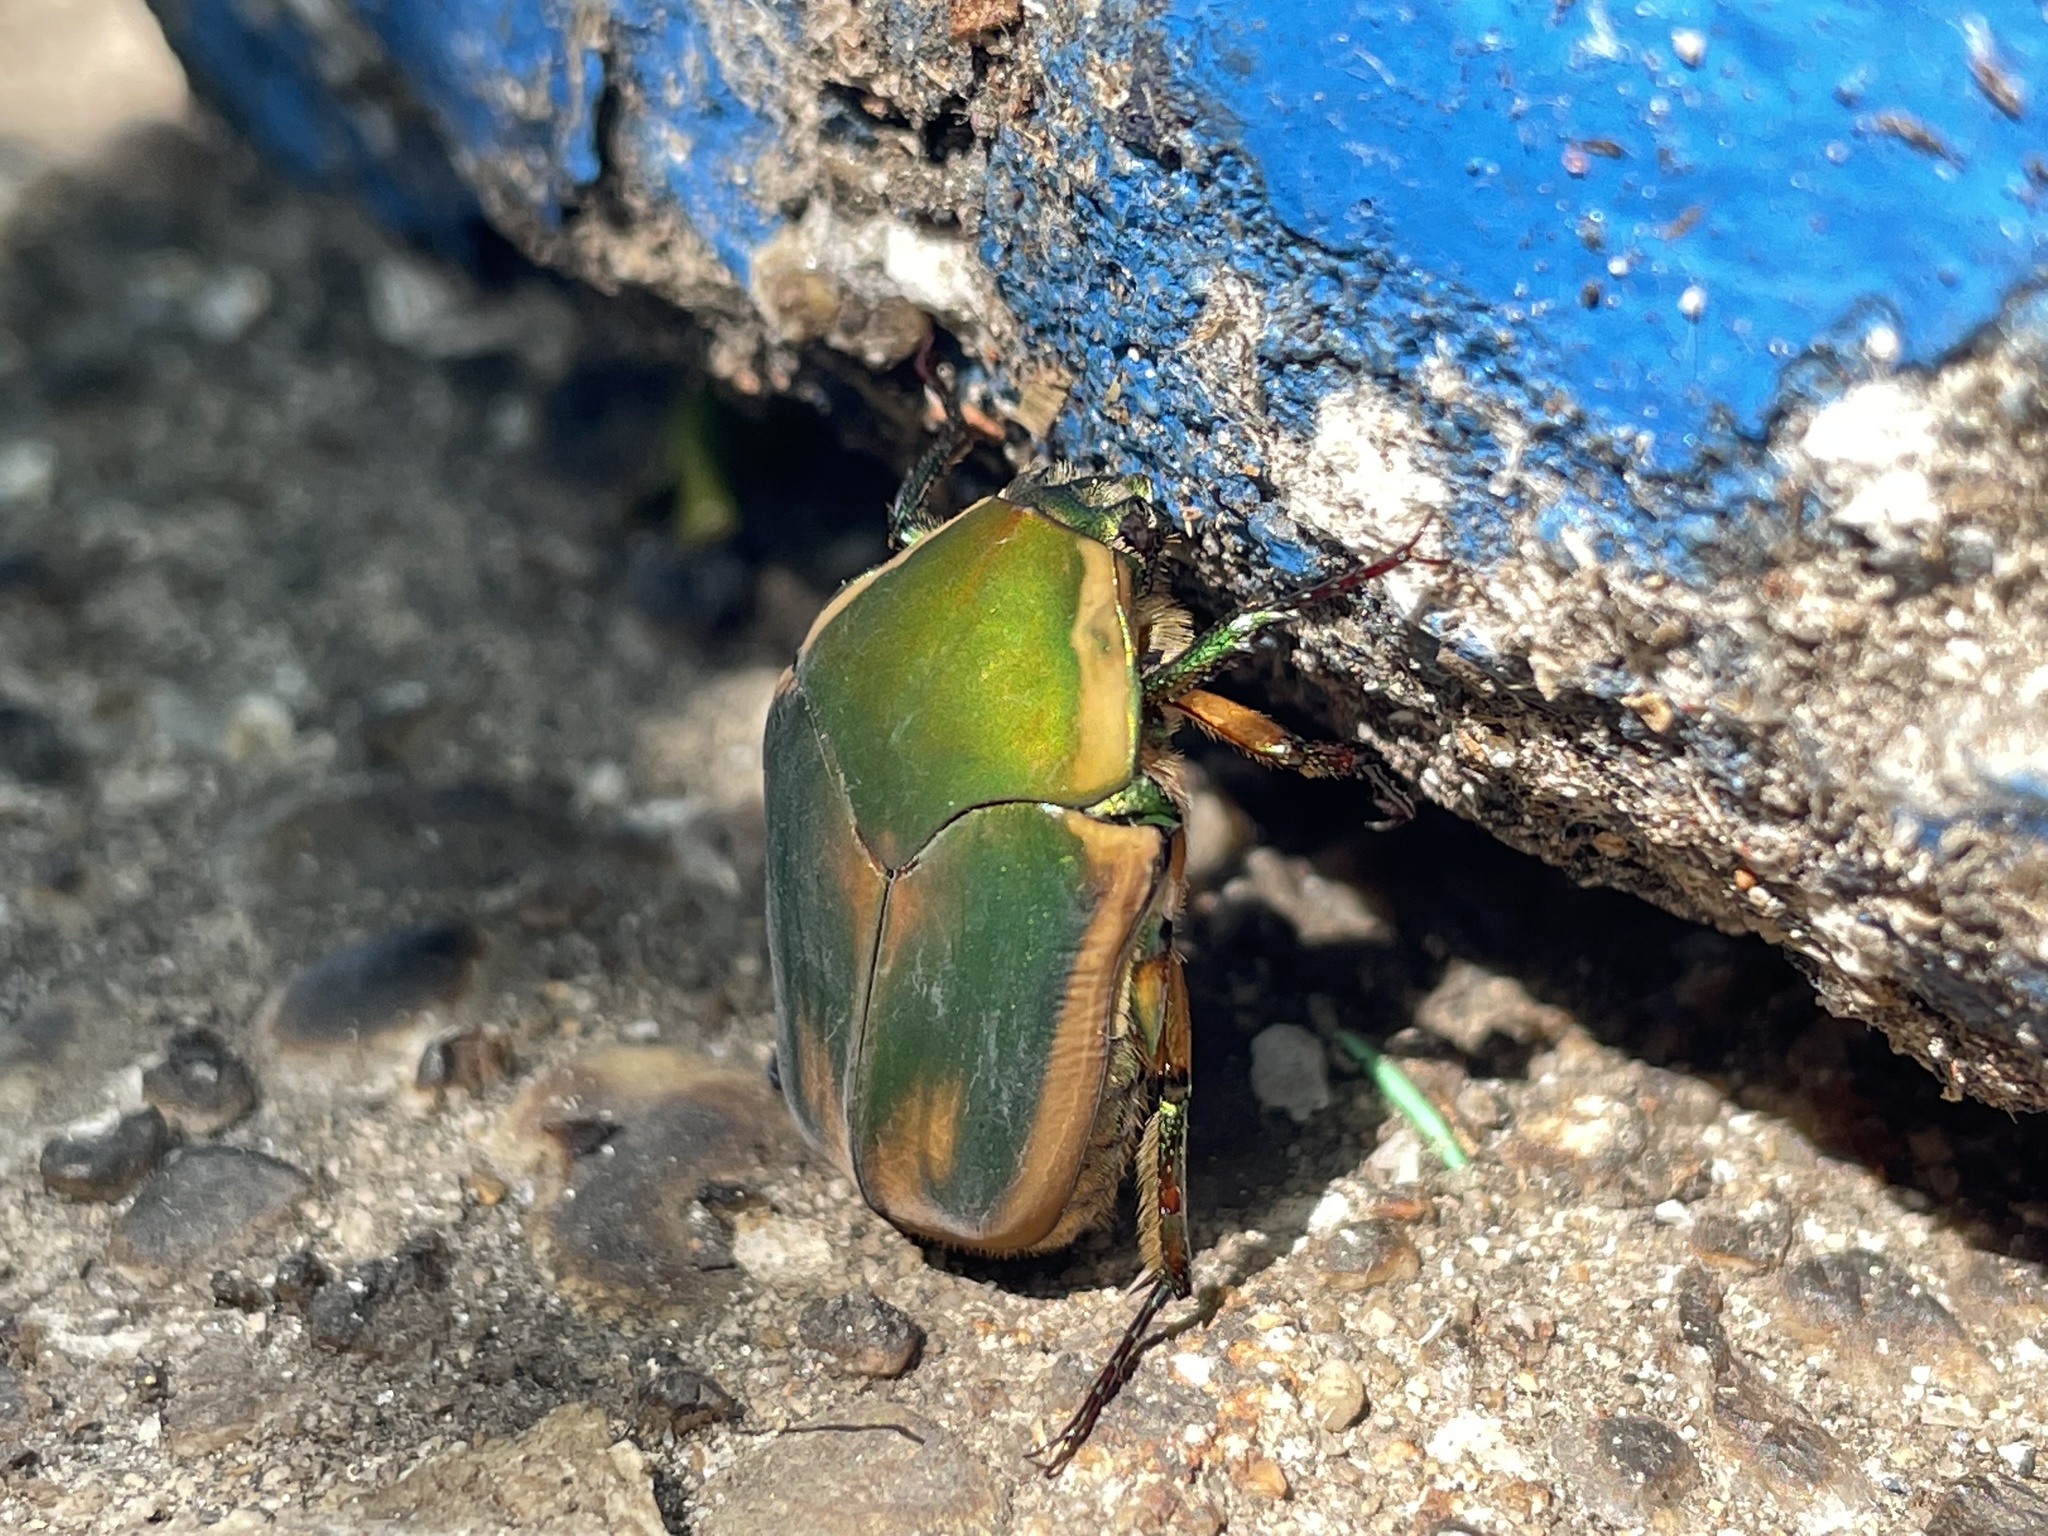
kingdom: Animalia
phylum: Arthropoda
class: Insecta
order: Coleoptera
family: Scarabaeidae
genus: Cotinis
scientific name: Cotinis nitida
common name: Common green june beetle
